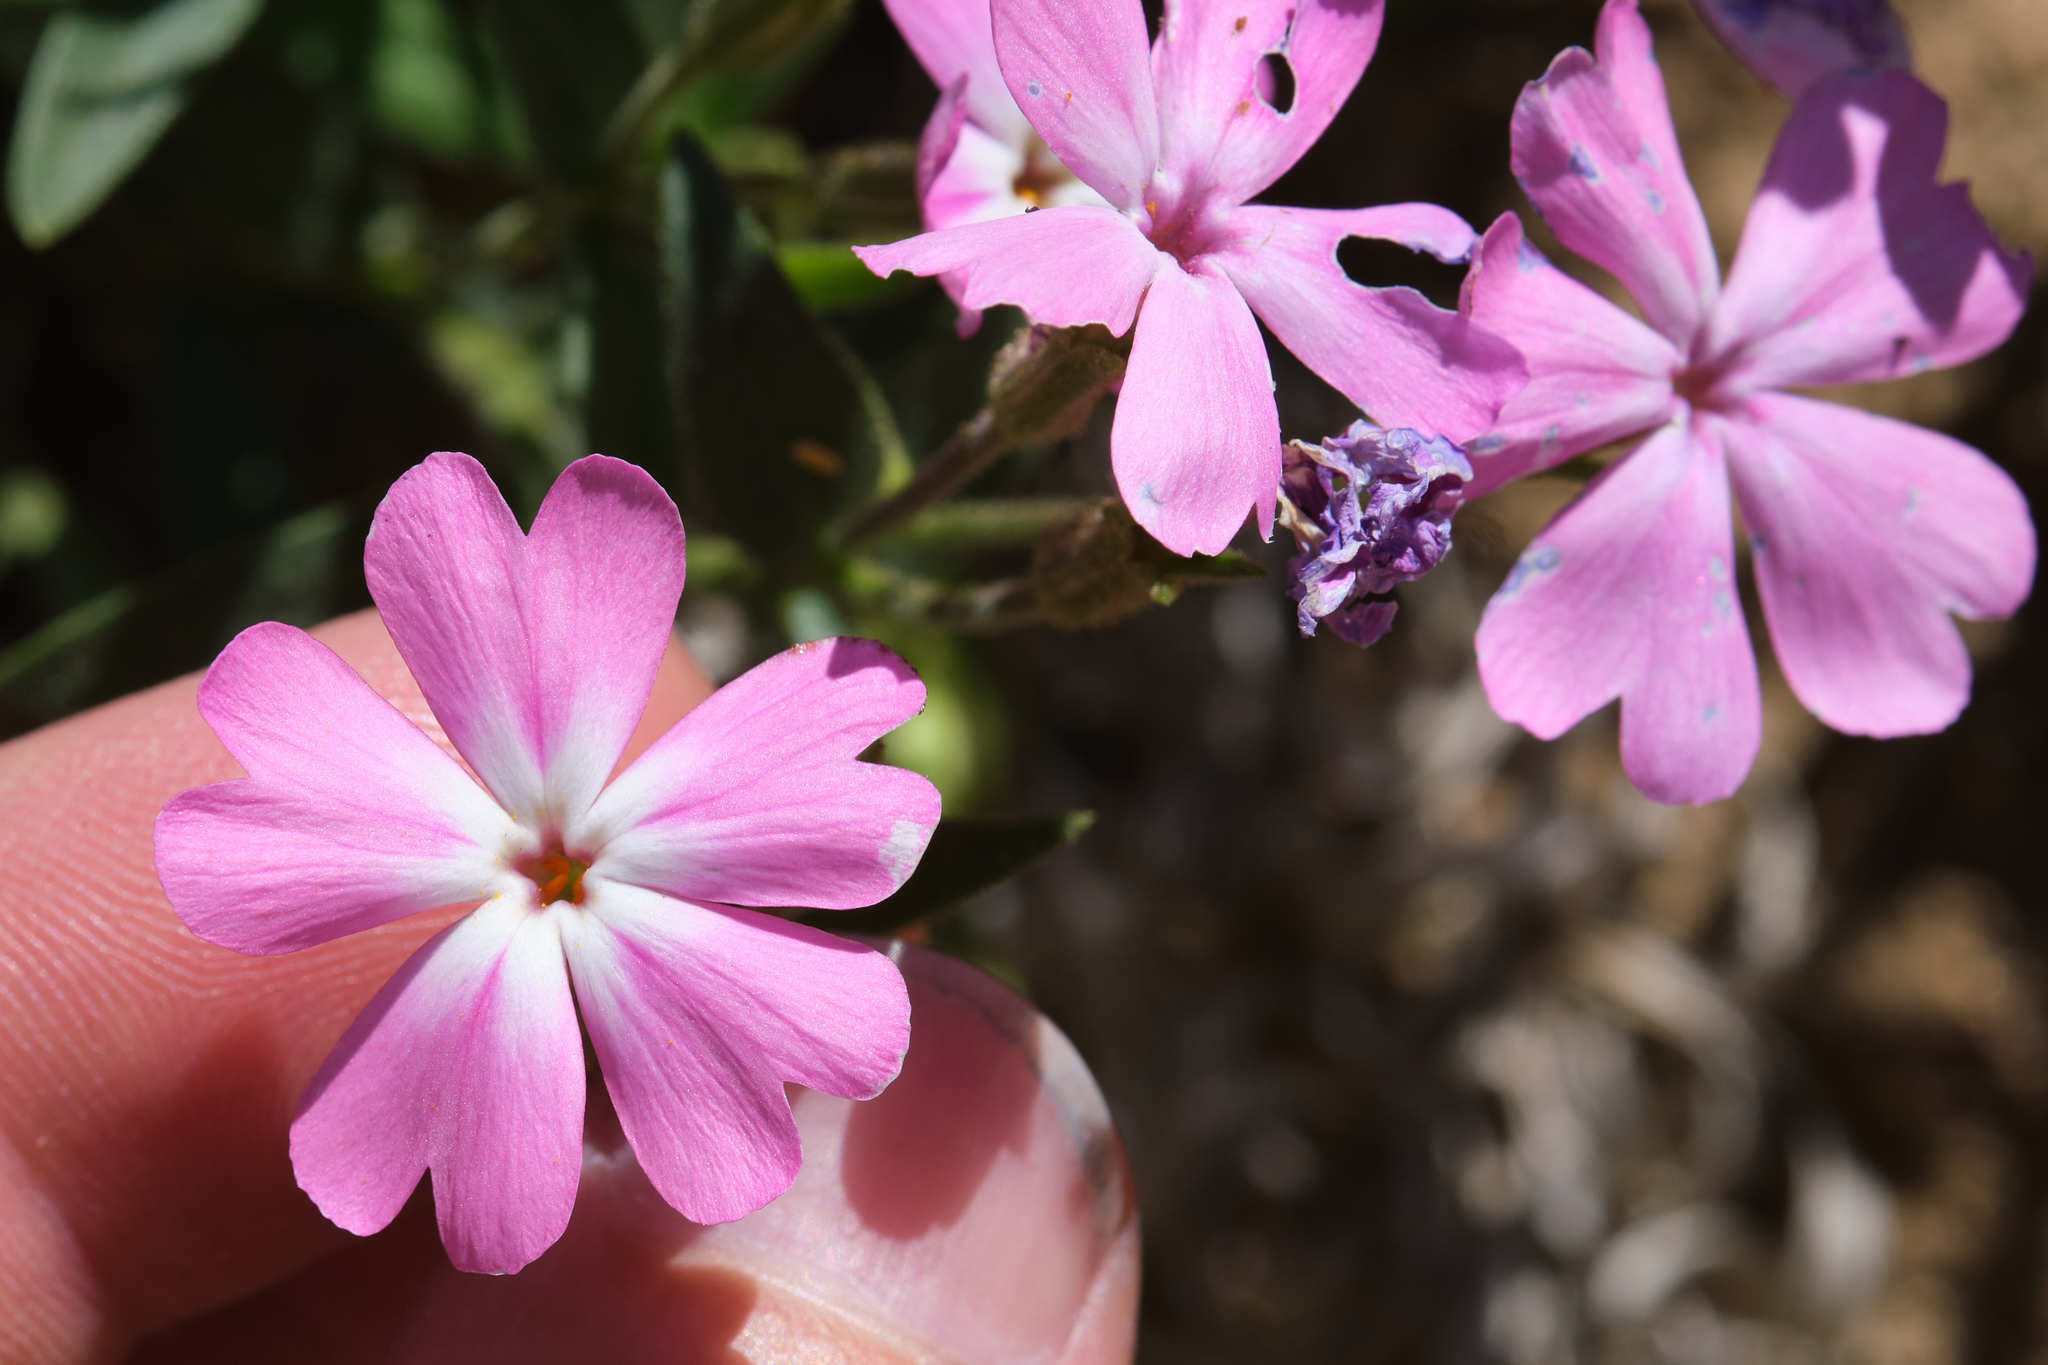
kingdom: Plantae
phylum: Tracheophyta
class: Magnoliopsida
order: Ericales
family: Polemoniaceae
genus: Phlox
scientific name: Phlox speciosa
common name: Bush phlox
